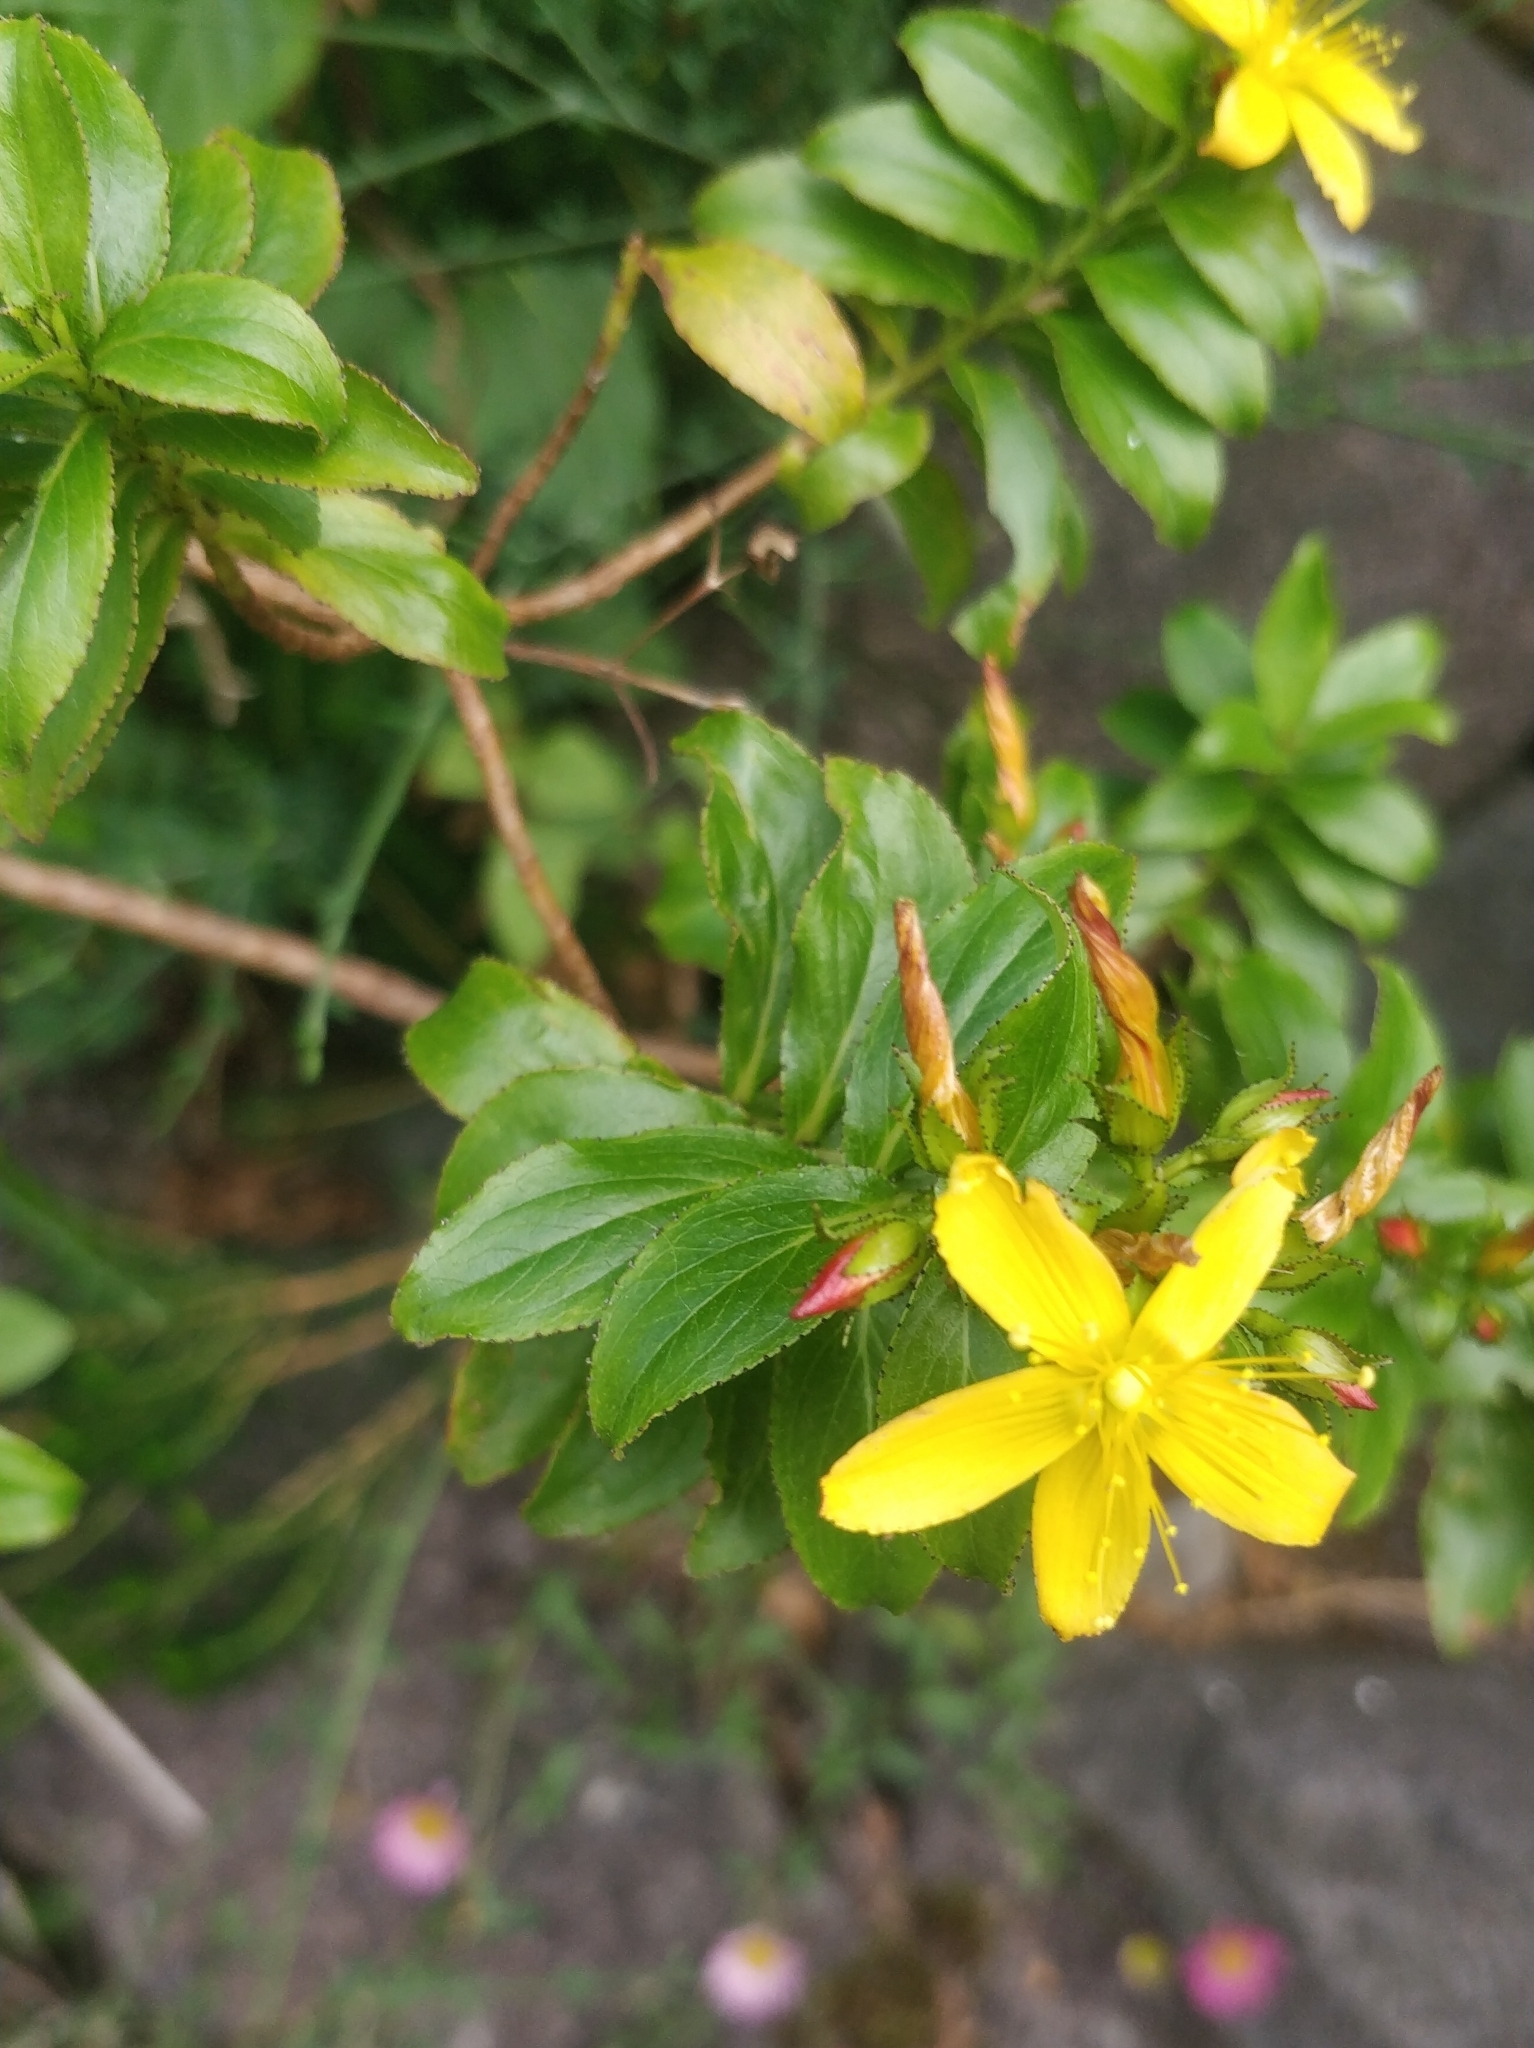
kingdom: Plantae
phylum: Tracheophyta
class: Magnoliopsida
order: Malpighiales
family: Hypericaceae
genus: Hypericum
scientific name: Hypericum glandulosum
